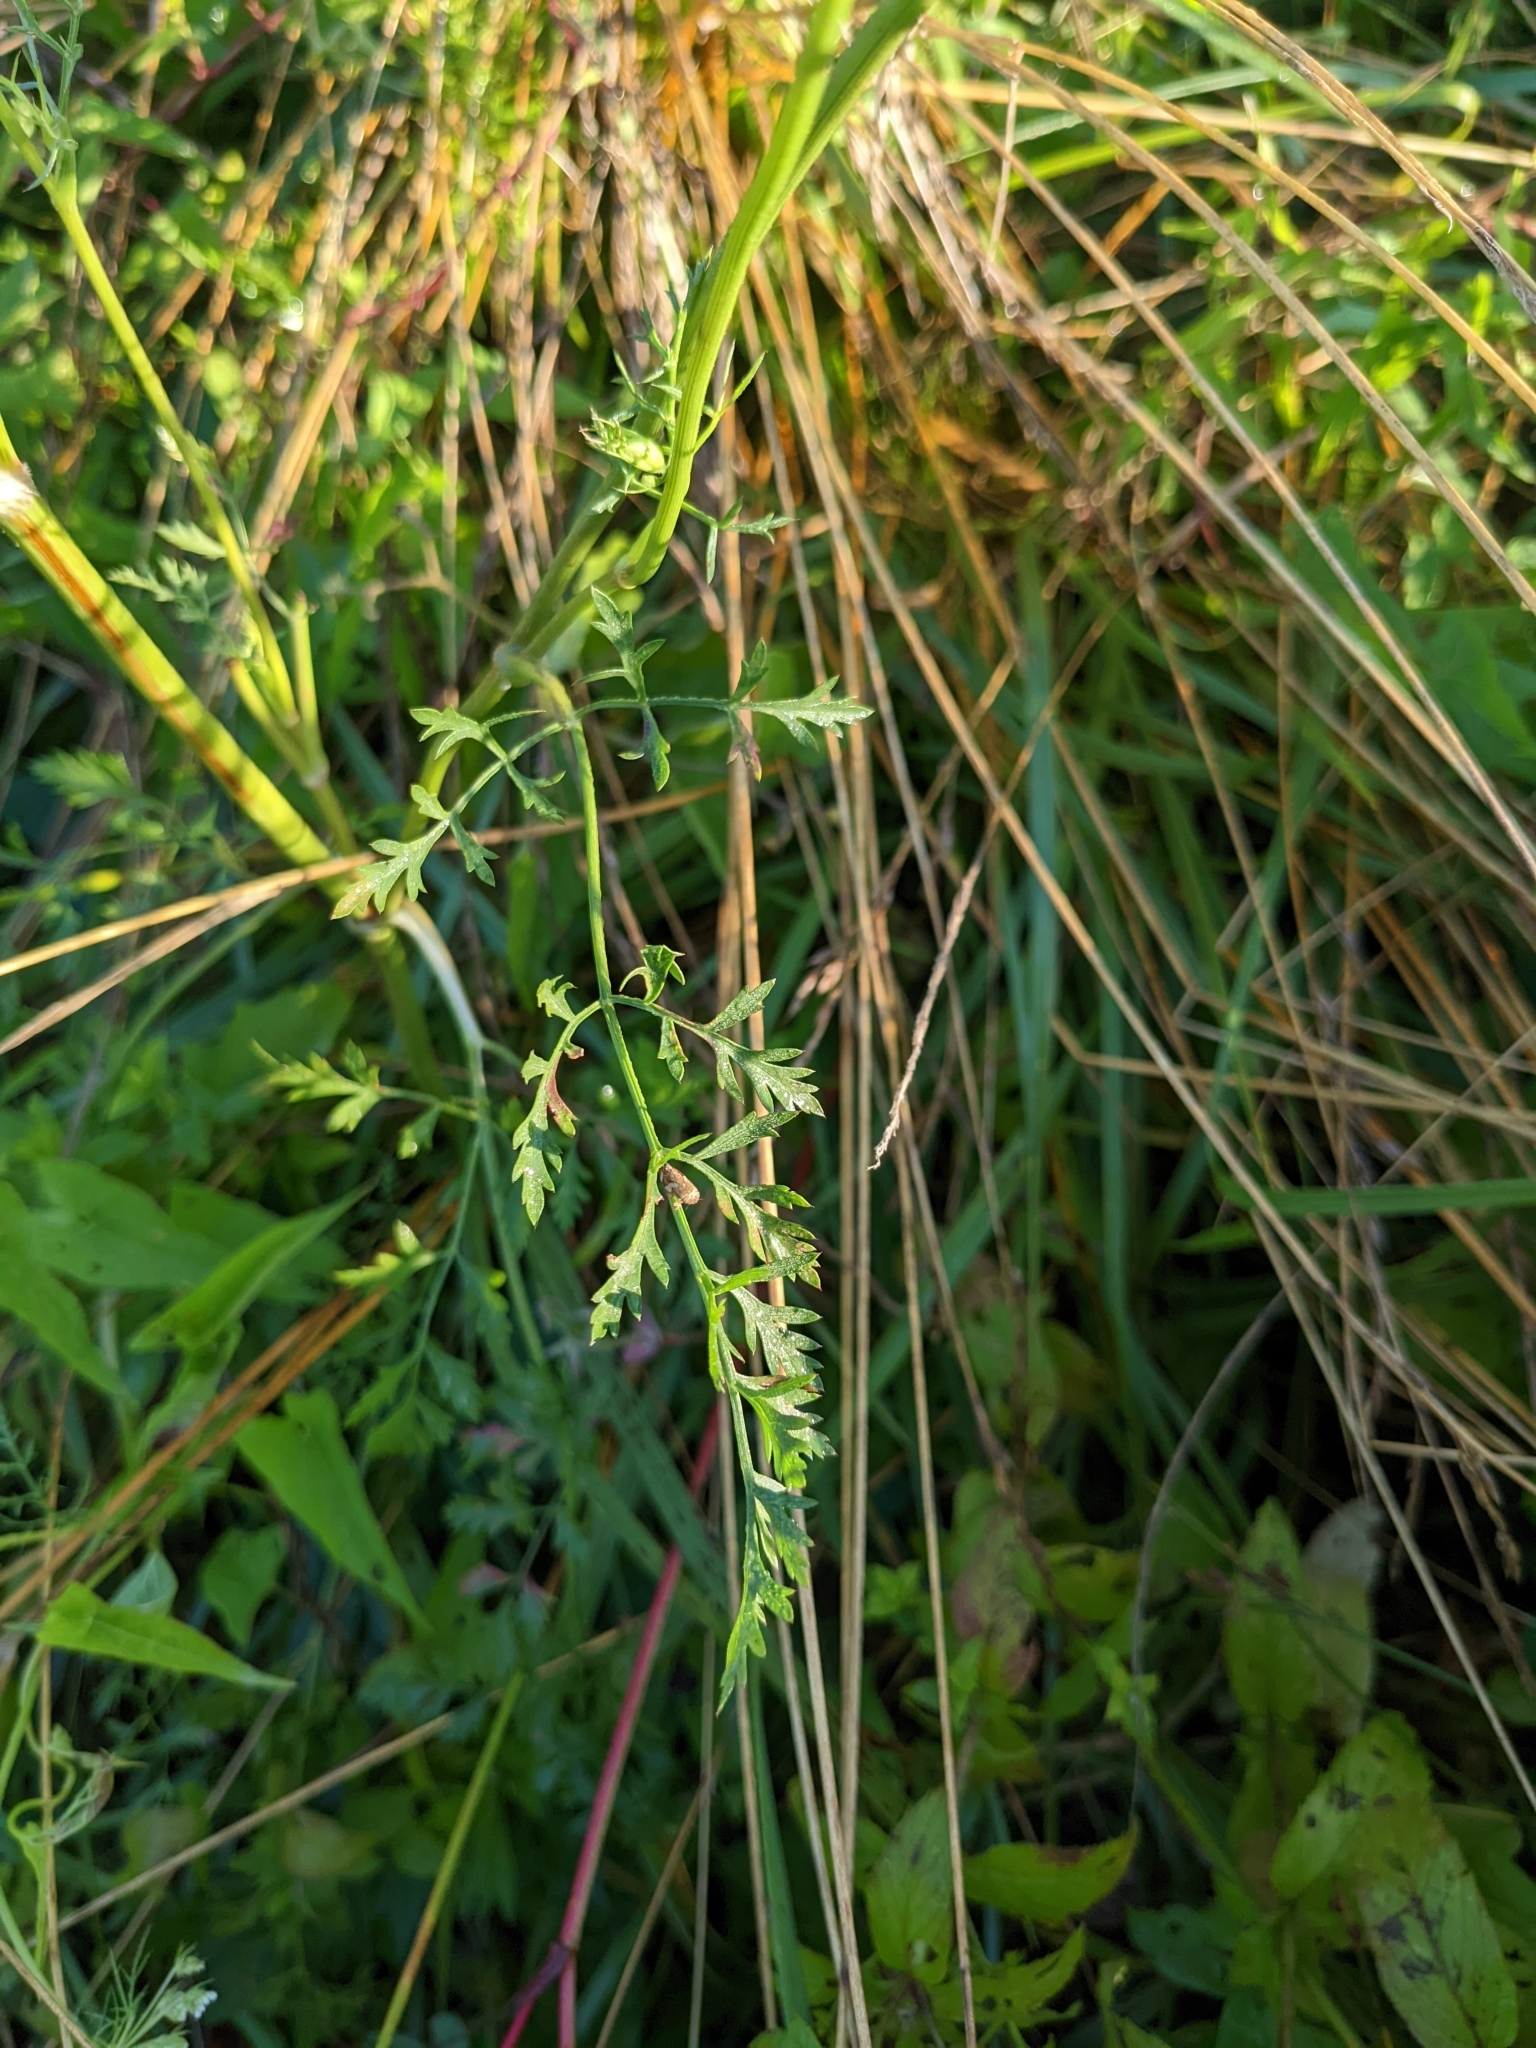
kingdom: Plantae
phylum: Tracheophyta
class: Magnoliopsida
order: Apiales
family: Apiaceae
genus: Daucus
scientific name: Daucus carota
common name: Wild carrot
